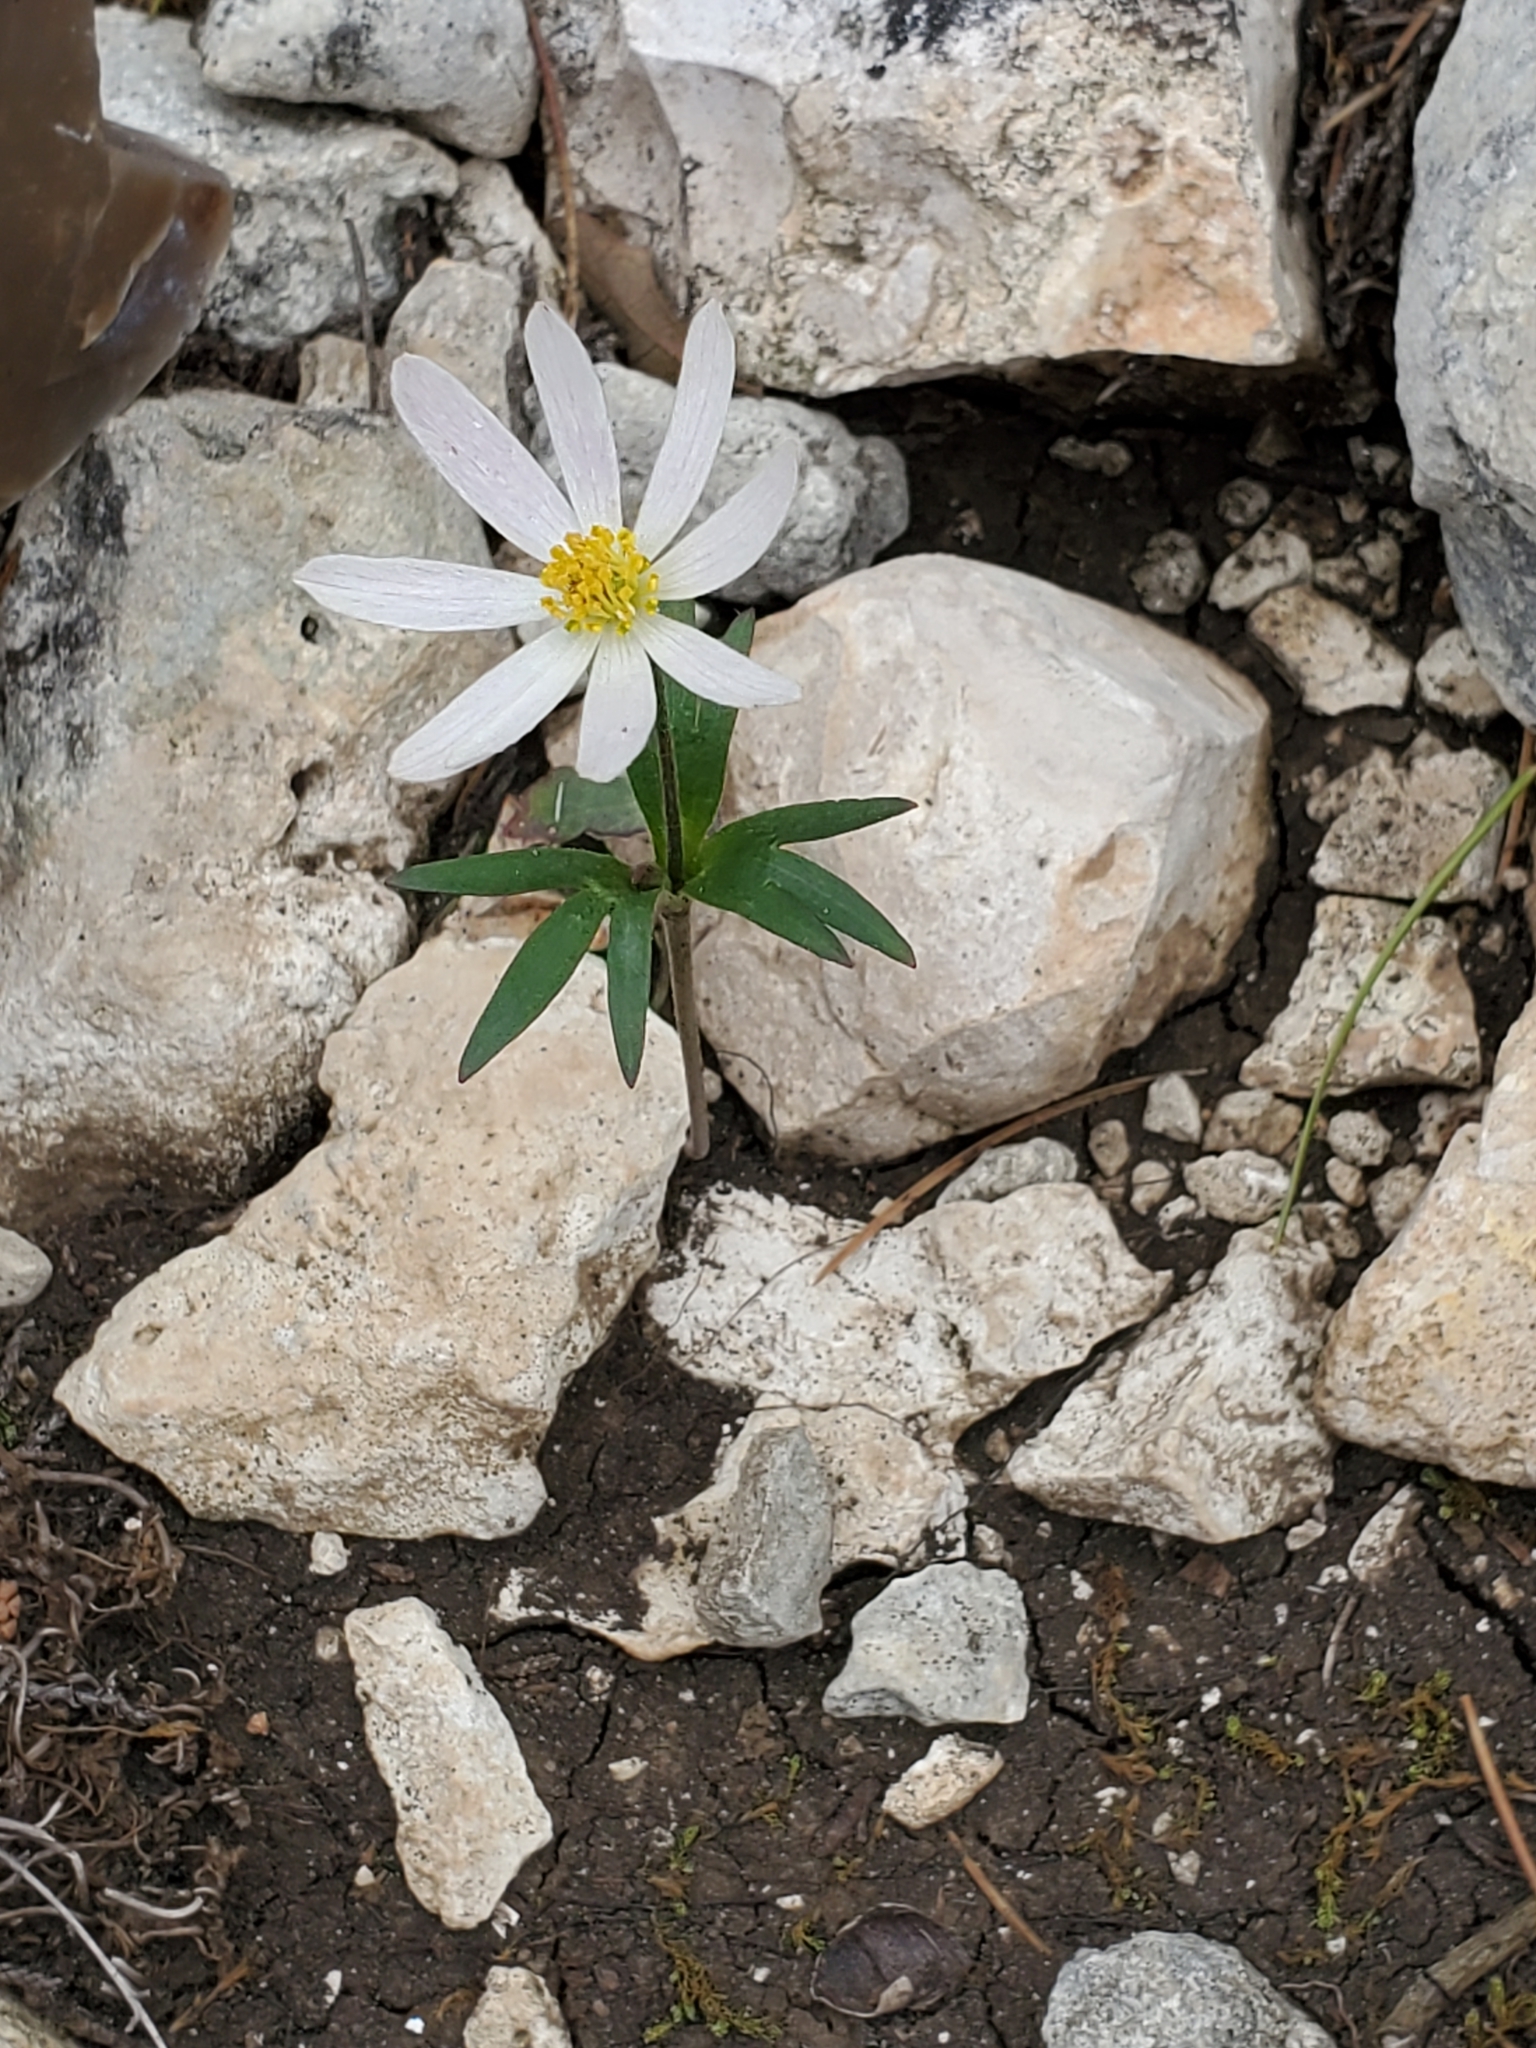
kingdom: Plantae
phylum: Tracheophyta
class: Magnoliopsida
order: Ranunculales
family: Ranunculaceae
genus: Anemone
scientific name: Anemone edwardsiana
